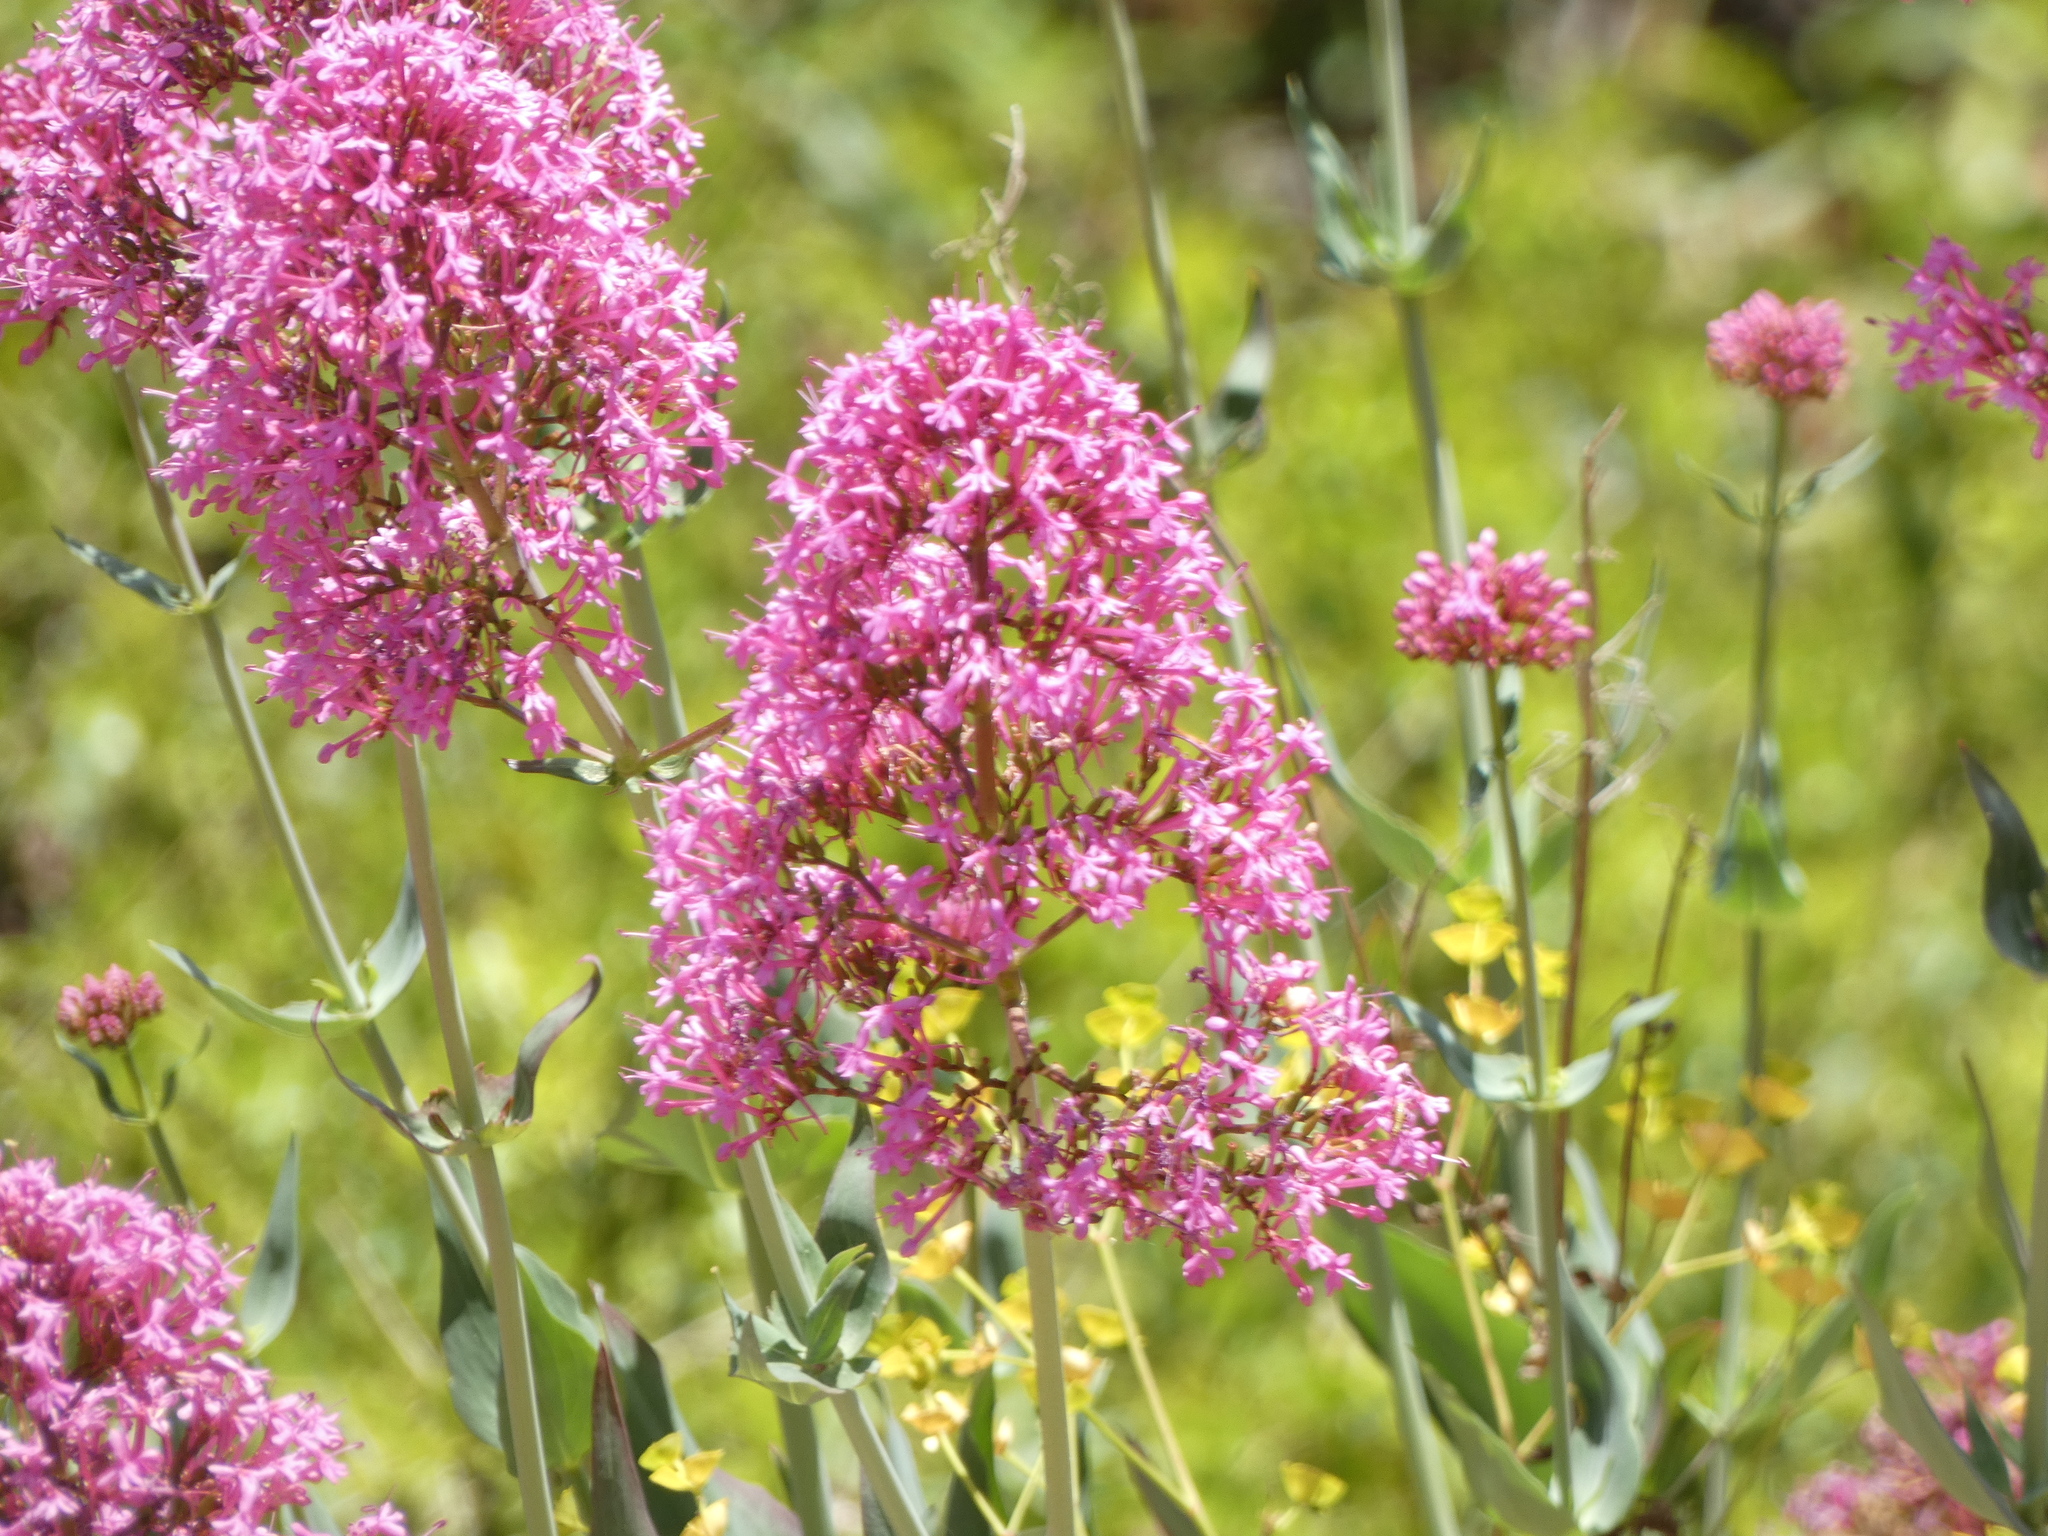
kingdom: Plantae
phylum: Tracheophyta
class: Magnoliopsida
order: Dipsacales
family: Caprifoliaceae
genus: Centranthus
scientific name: Centranthus ruber
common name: Red valerian
